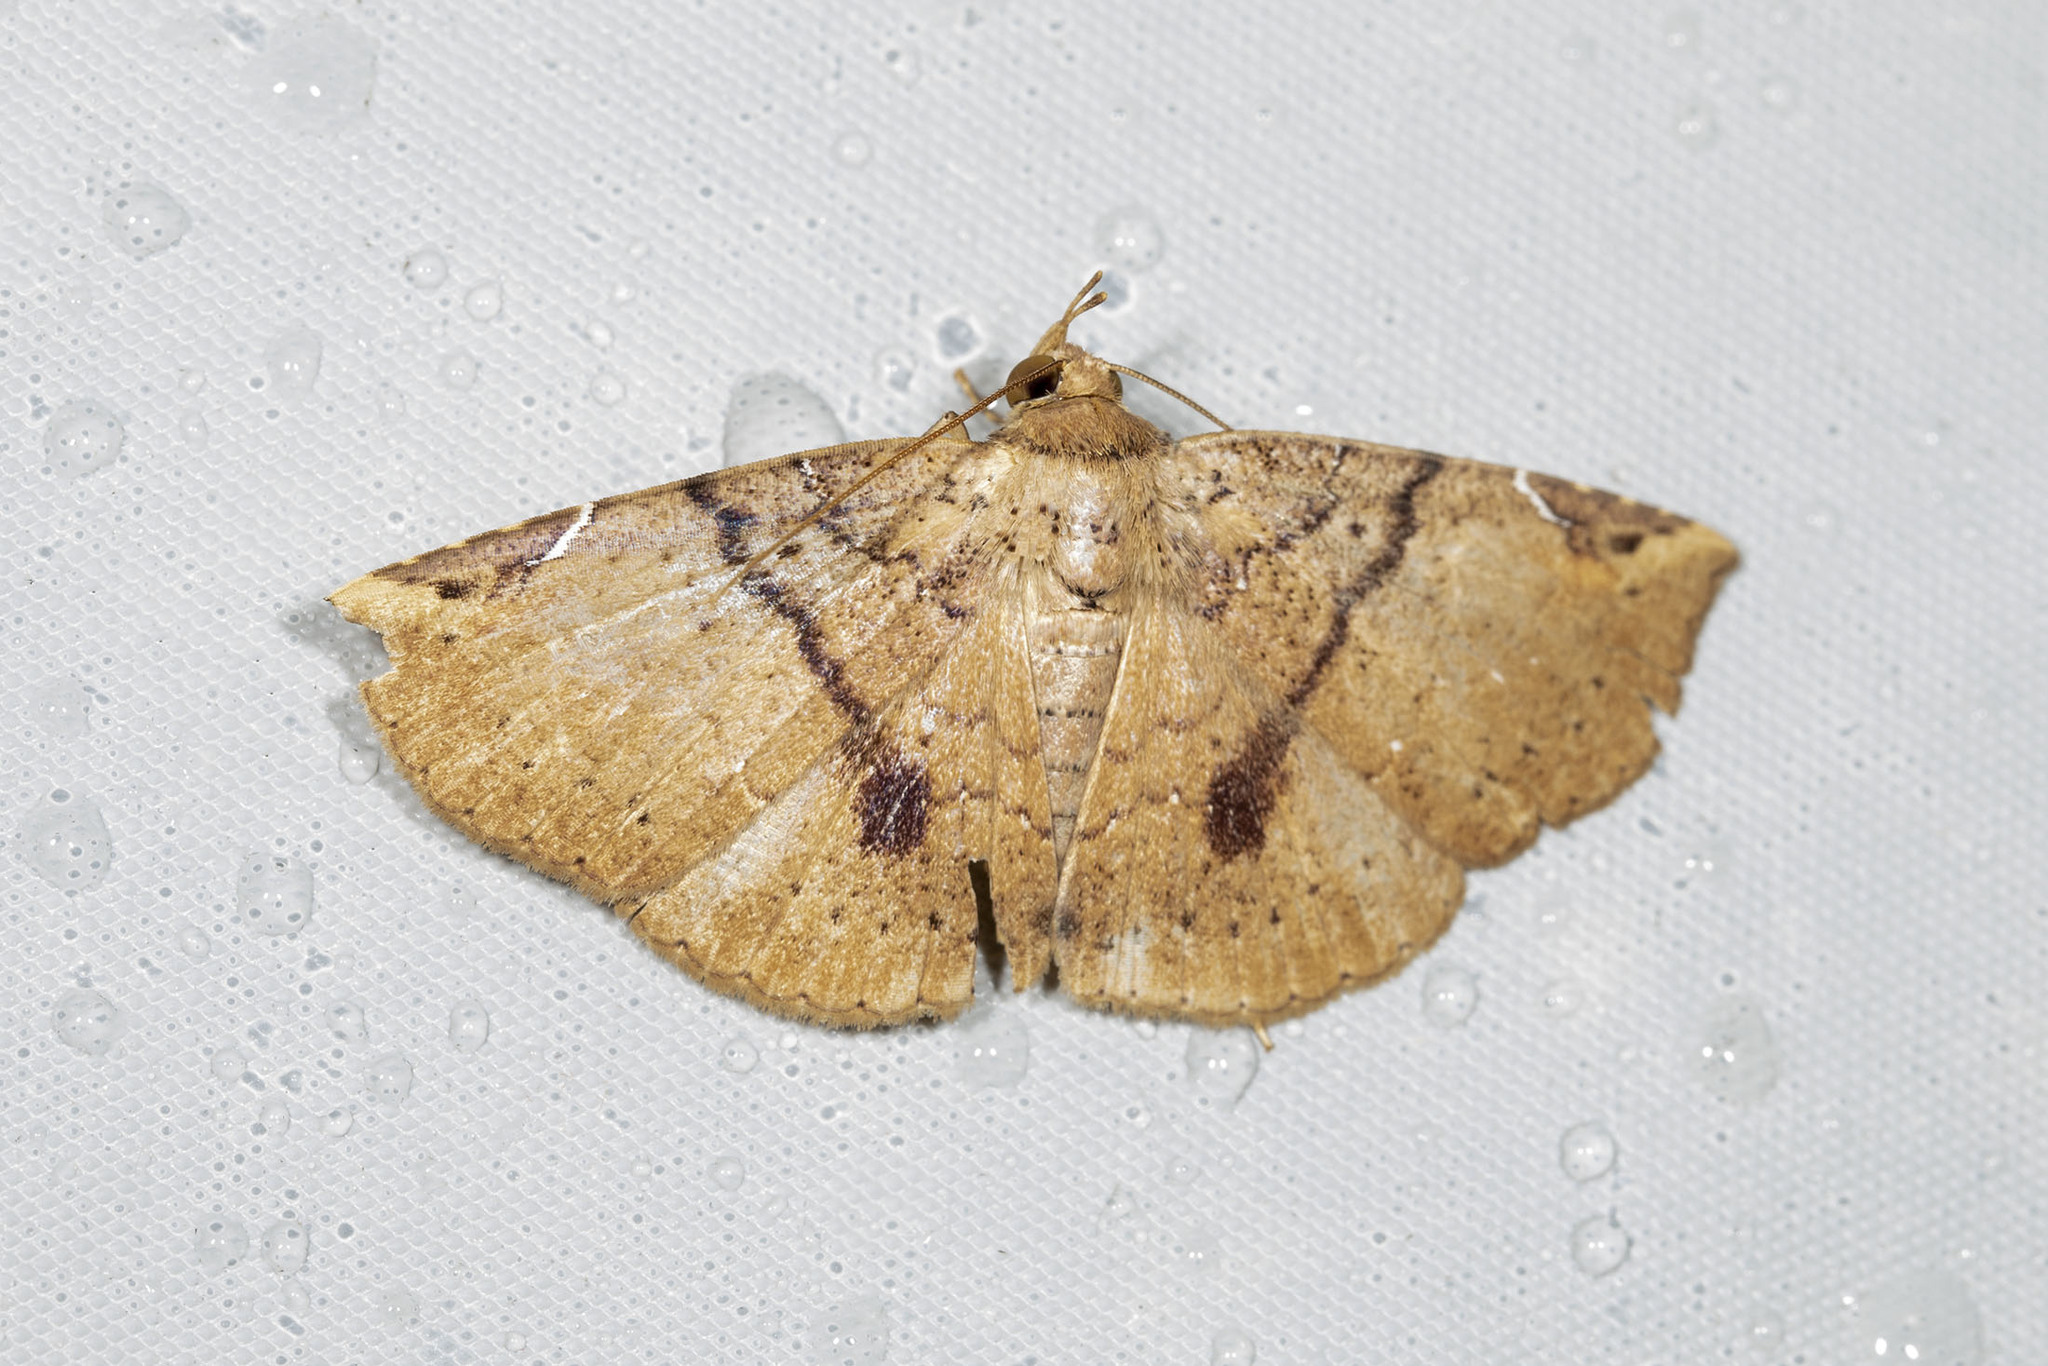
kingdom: Animalia
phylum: Arthropoda
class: Insecta
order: Lepidoptera
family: Erebidae
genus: Antiblemma
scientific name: Antiblemma patifaciens
